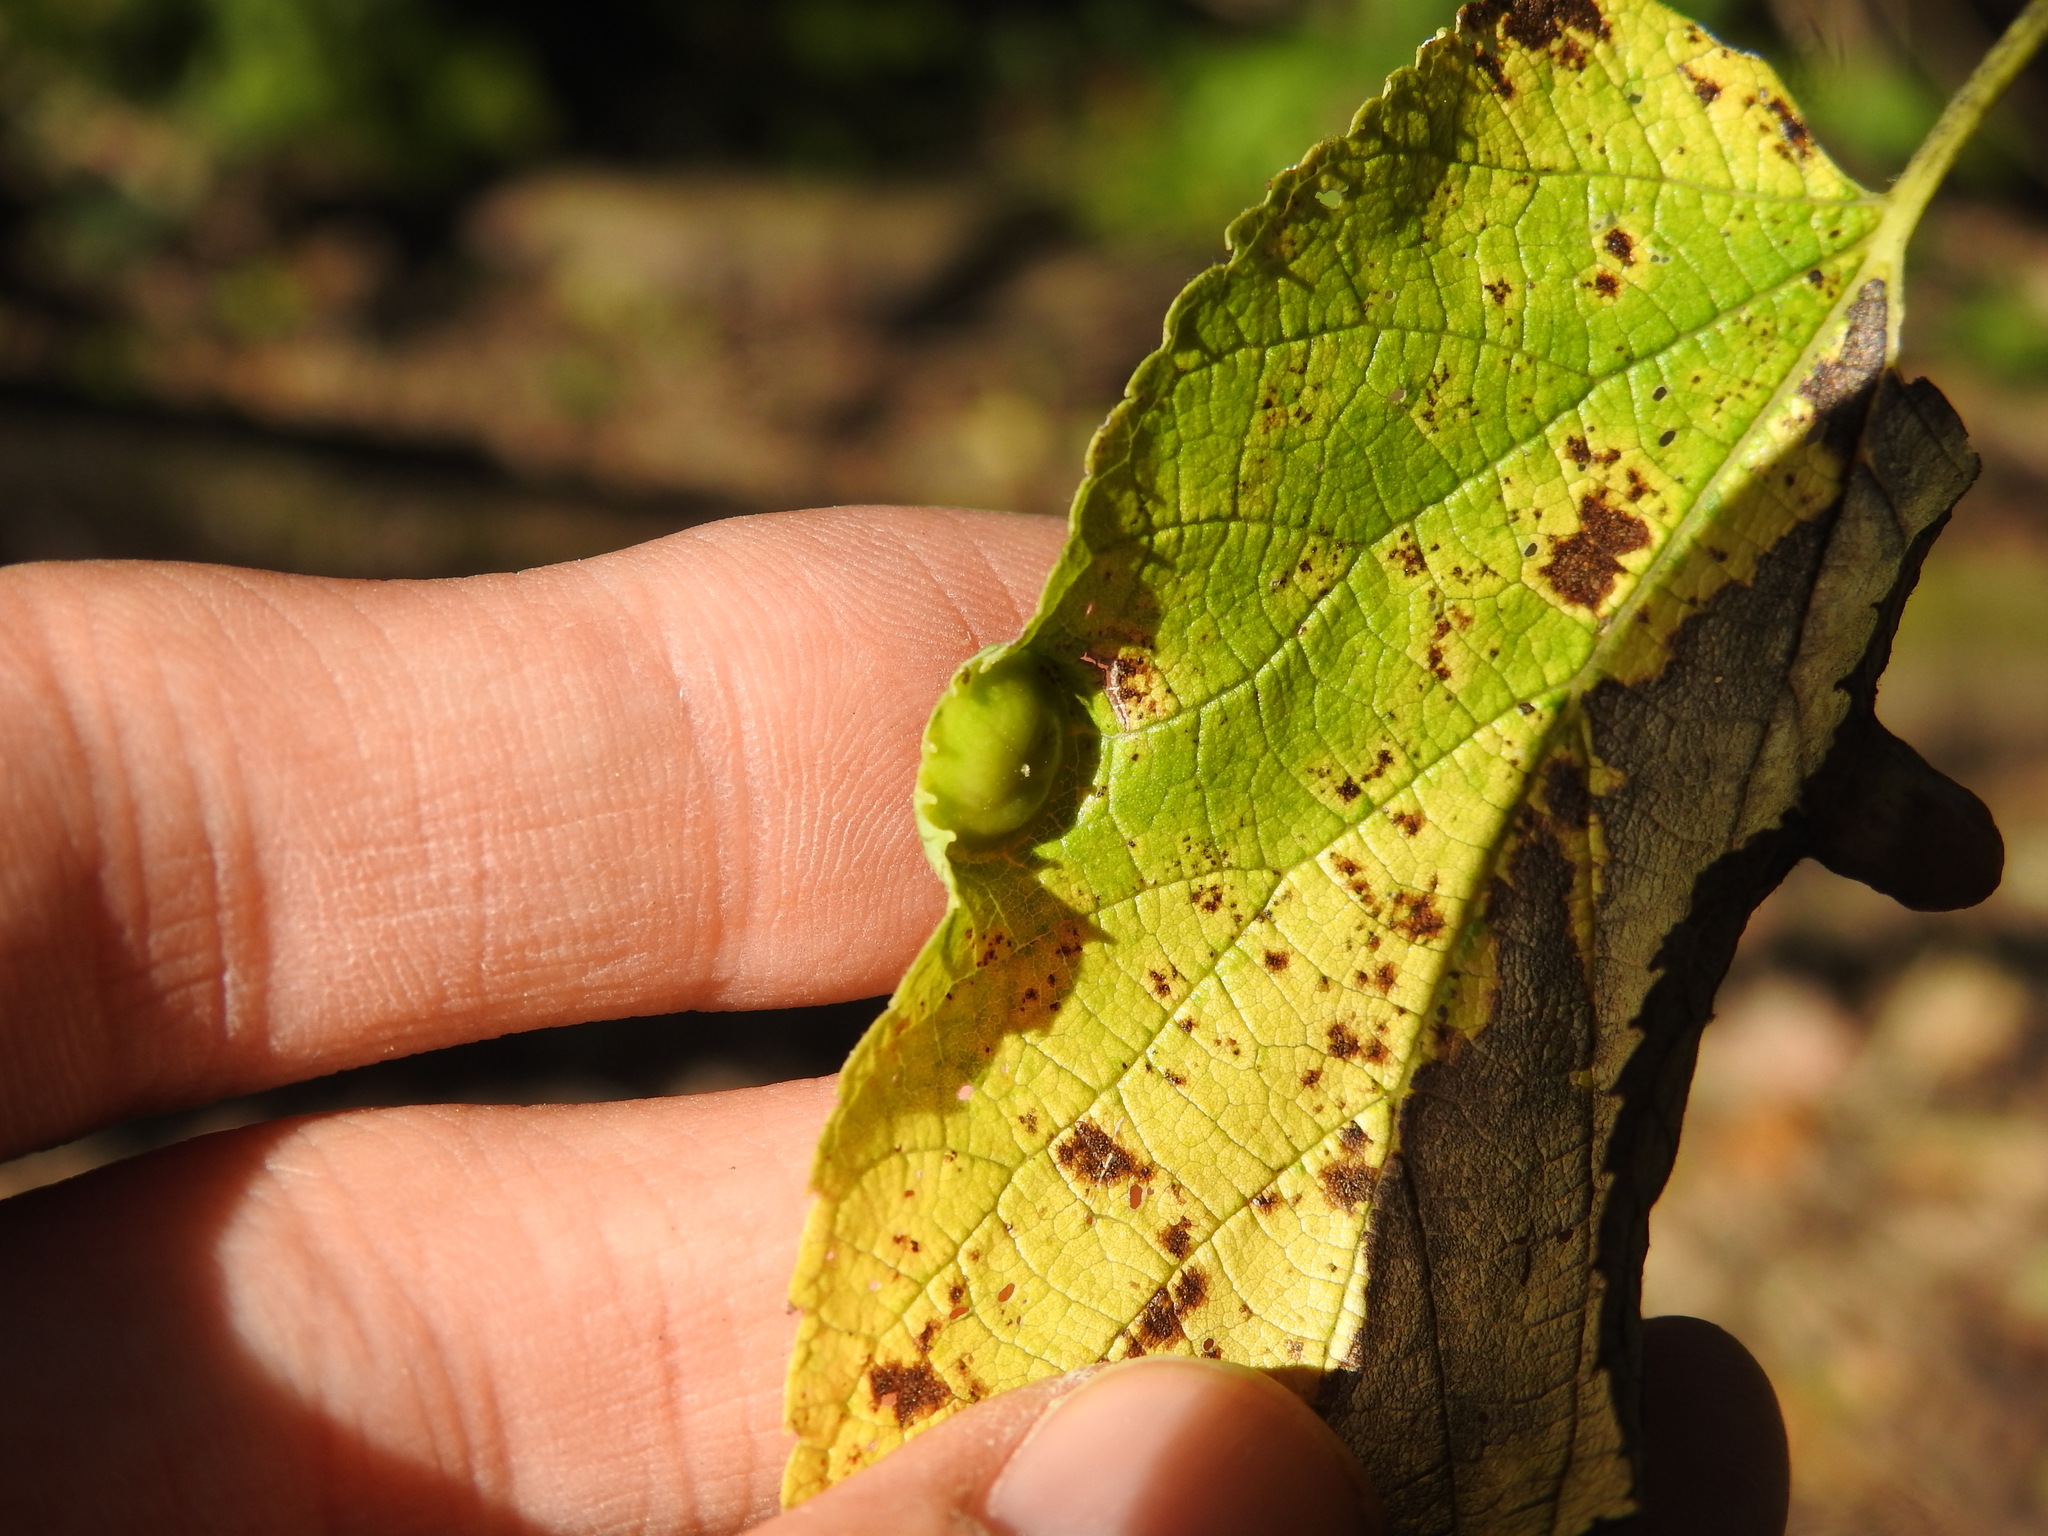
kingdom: Animalia
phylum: Arthropoda
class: Insecta
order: Hemiptera
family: Aphalaridae
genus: Pachypsylla
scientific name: Pachypsylla celtidisumbilicus
